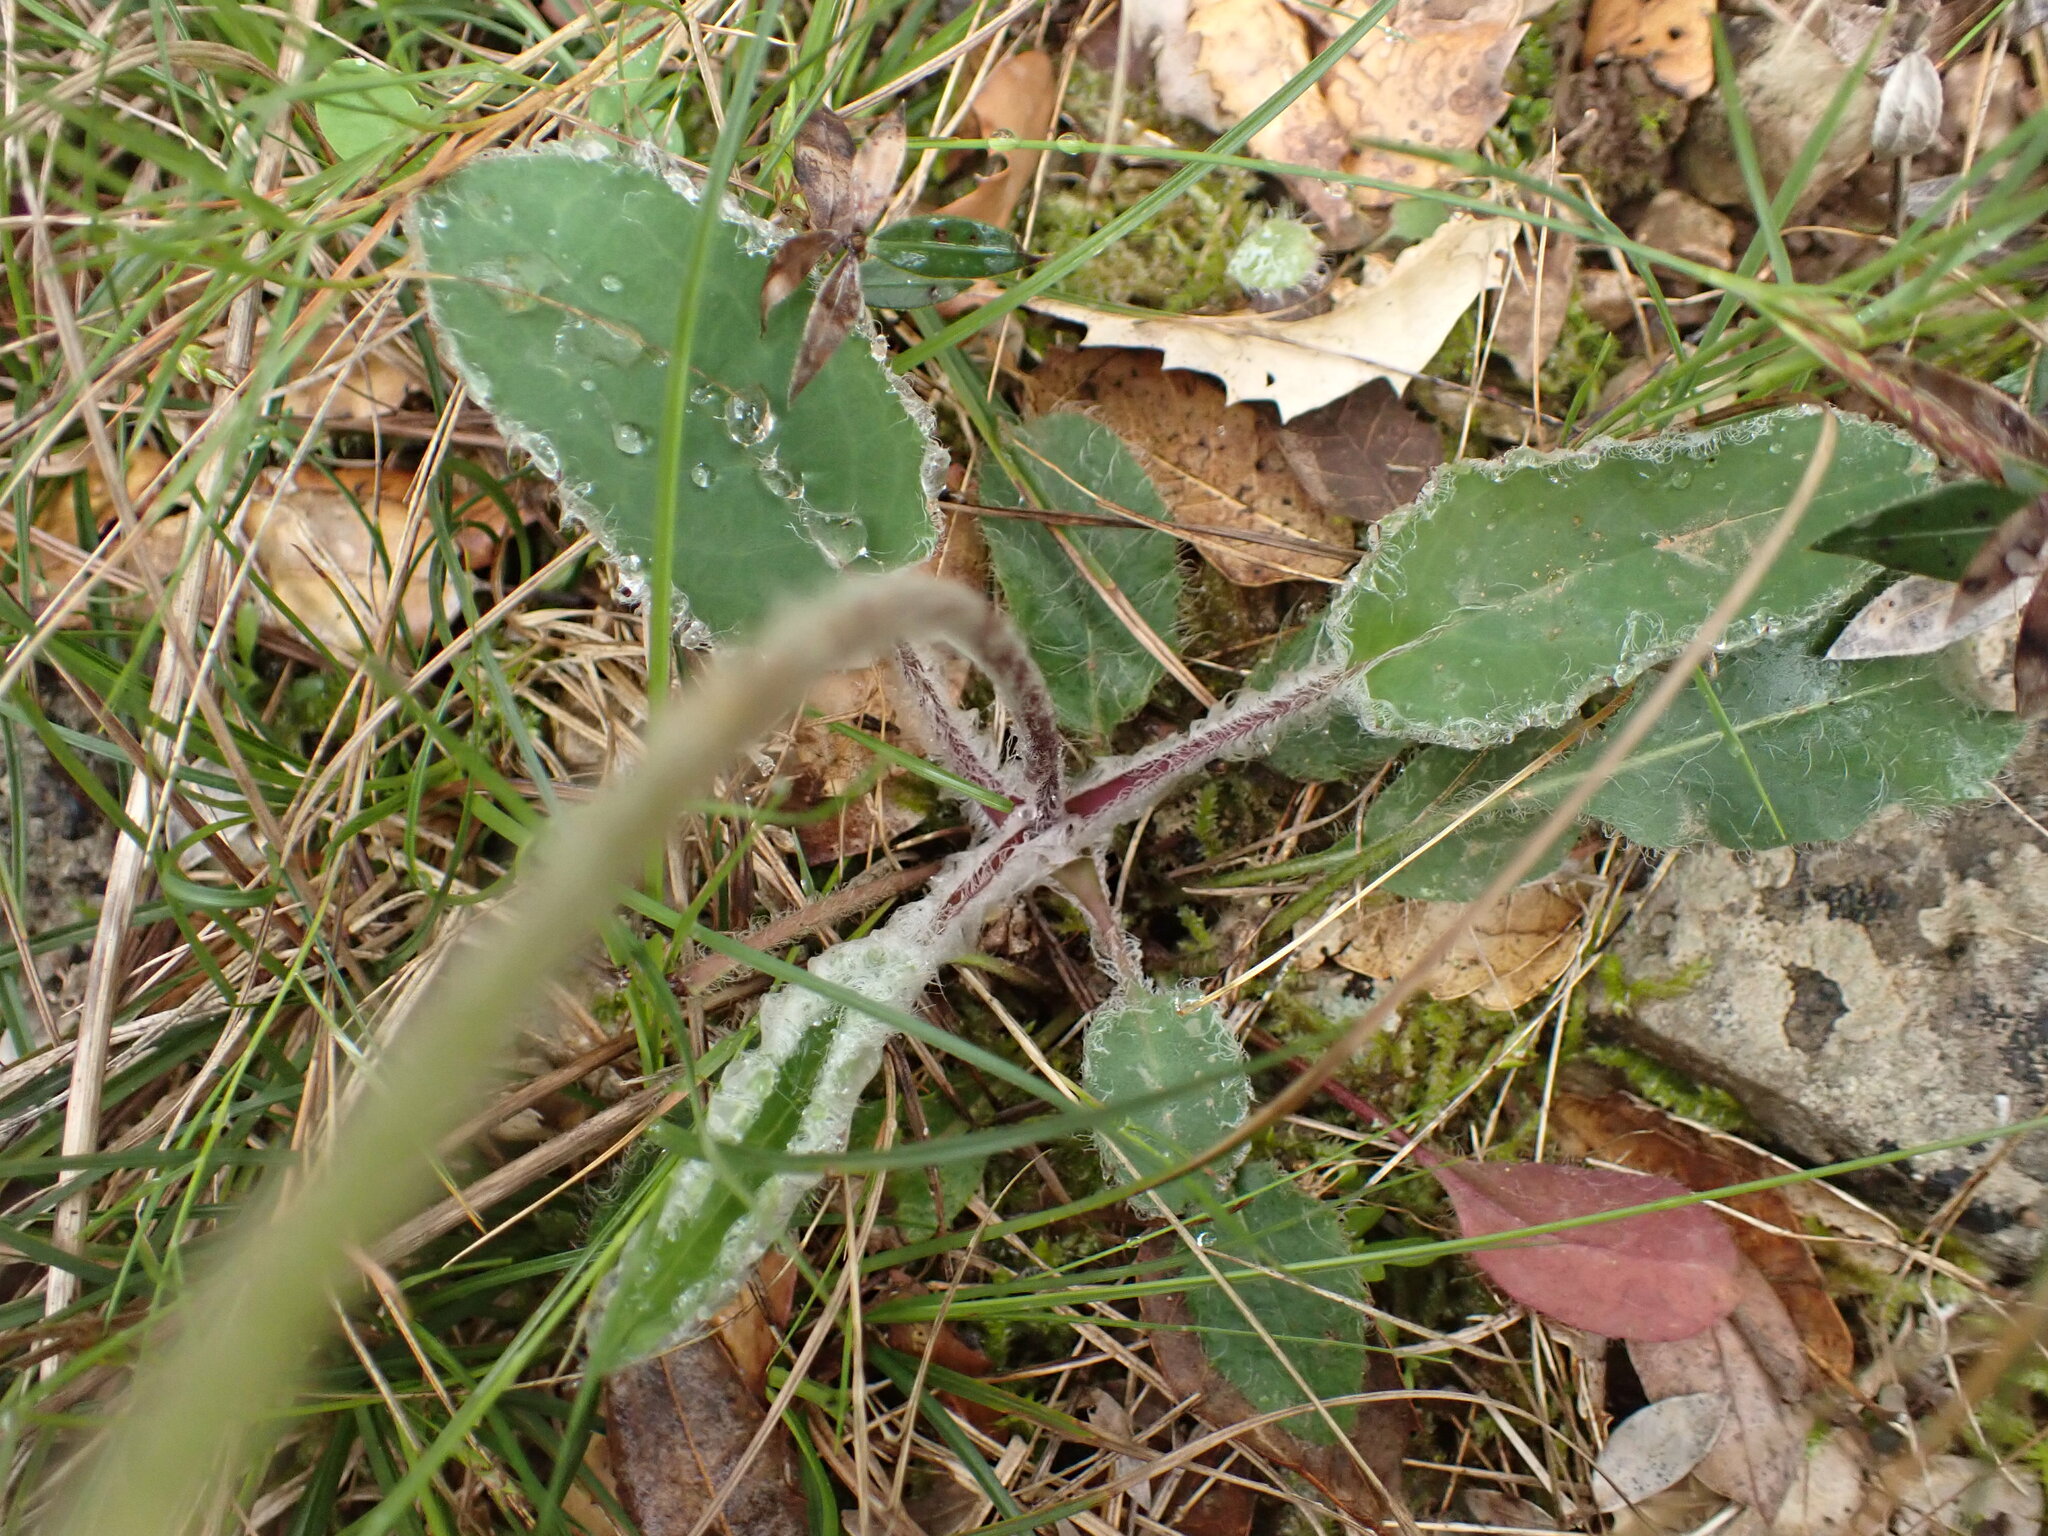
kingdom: Plantae
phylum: Tracheophyta
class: Magnoliopsida
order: Asterales
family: Asteraceae
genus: Hieracium
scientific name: Hieracium glaucinum
